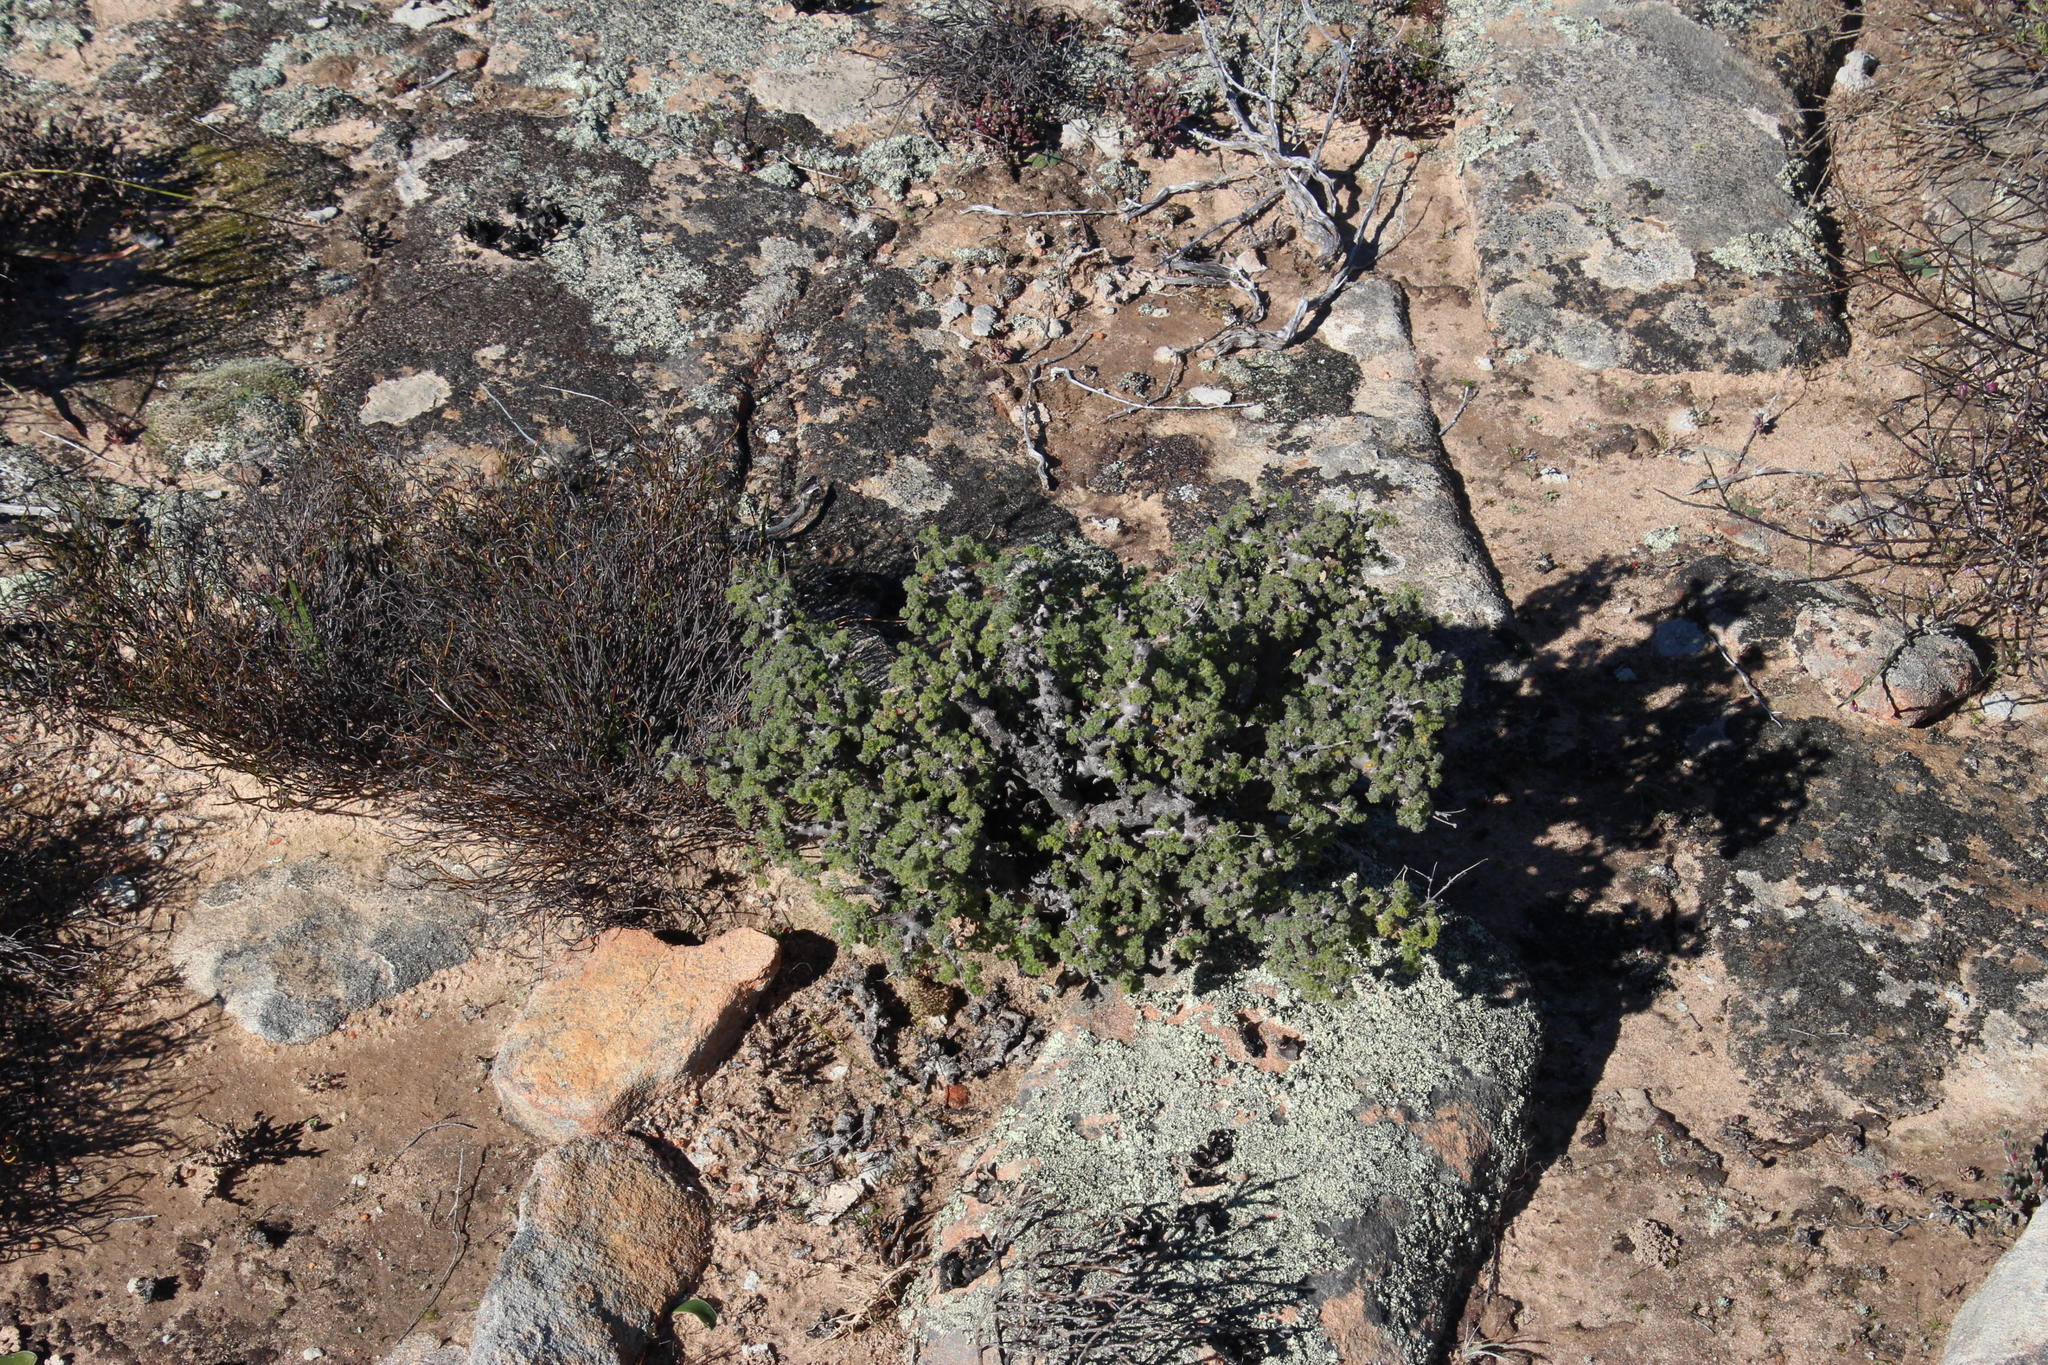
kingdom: Plantae
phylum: Tracheophyta
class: Magnoliopsida
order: Geraniales
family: Geraniaceae
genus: Pelargonium
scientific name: Pelargonium alternans
